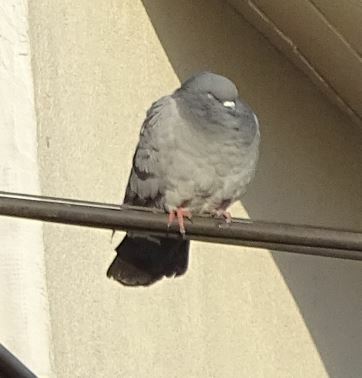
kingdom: Animalia
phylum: Chordata
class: Aves
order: Columbiformes
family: Columbidae
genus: Columba
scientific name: Columba livia
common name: Rock pigeon
